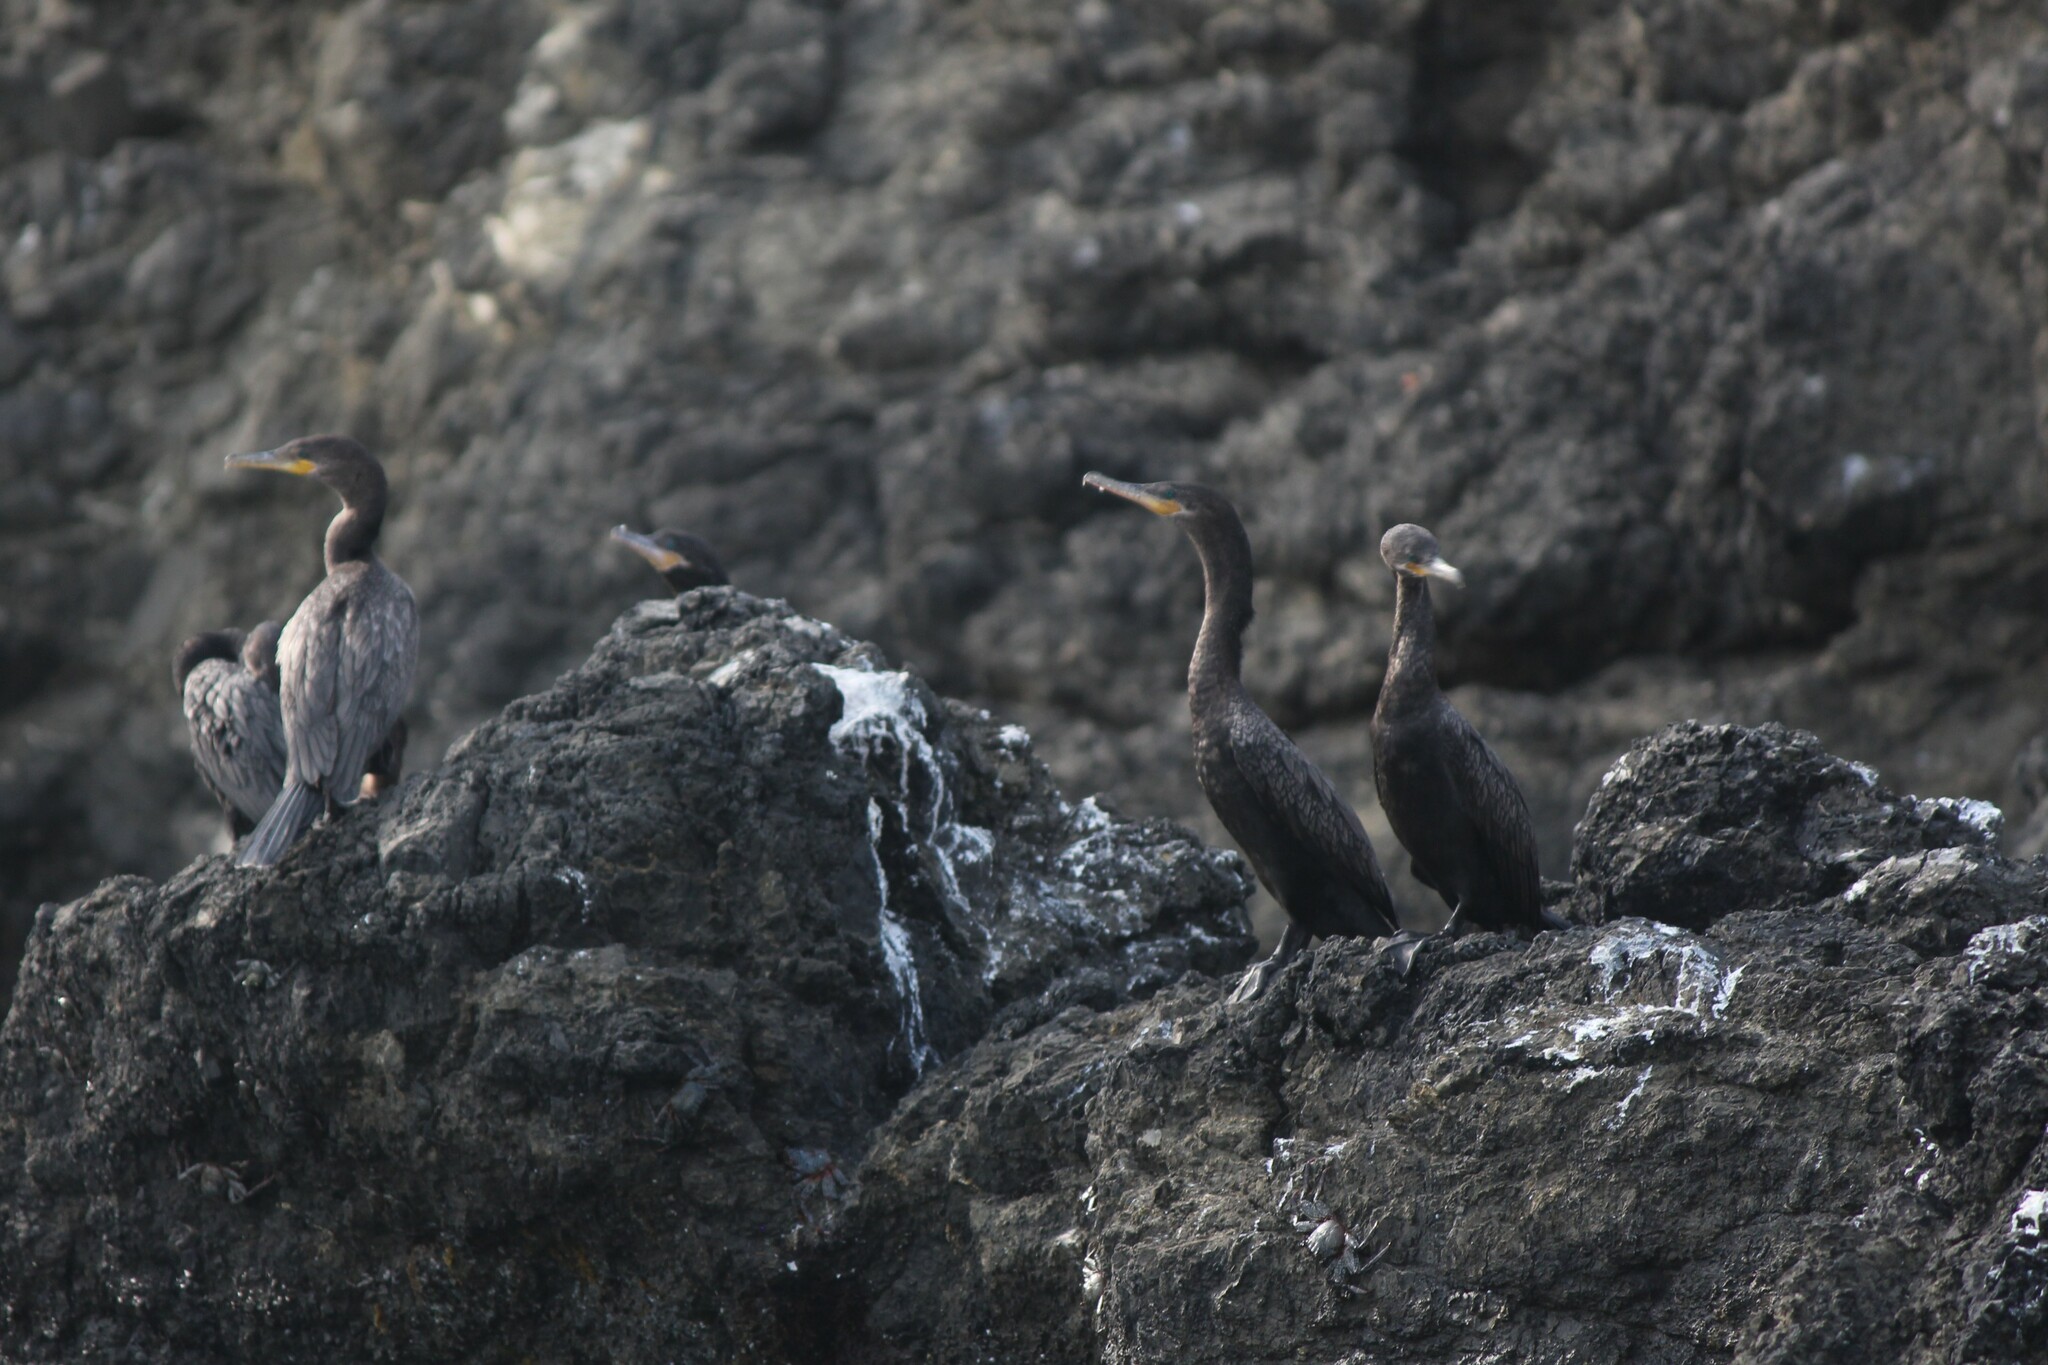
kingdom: Animalia
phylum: Chordata
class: Aves
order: Suliformes
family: Phalacrocoracidae
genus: Phalacrocorax
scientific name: Phalacrocorax brasilianus
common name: Neotropic cormorant
